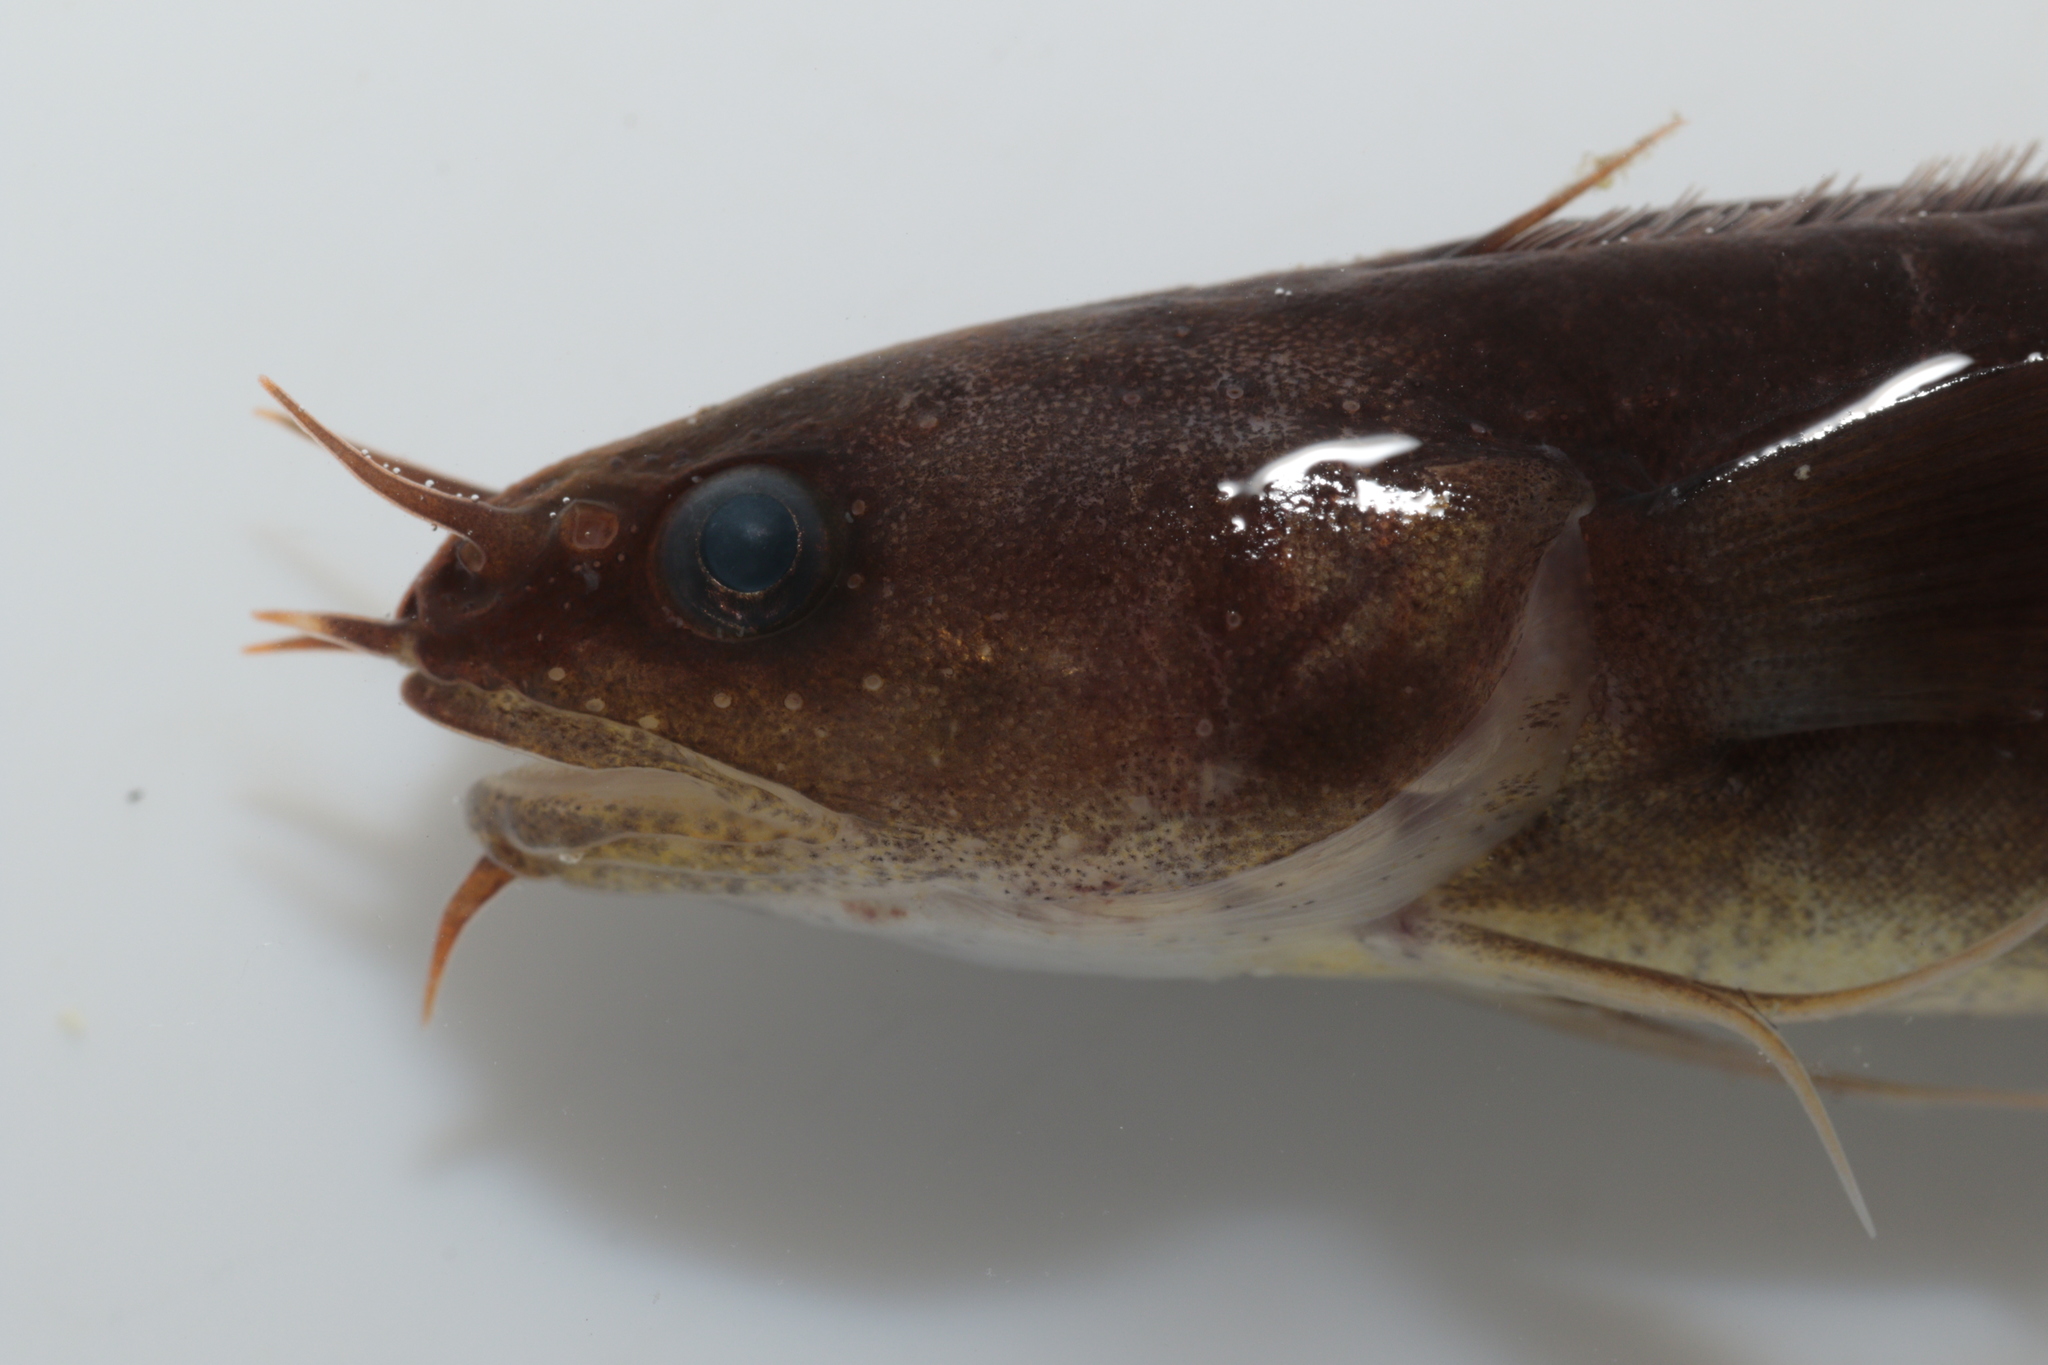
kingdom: Animalia
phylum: Chordata
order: Gadiformes
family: Lotidae
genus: Ciliata
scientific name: Ciliata mustela
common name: Five-bearded rockling
